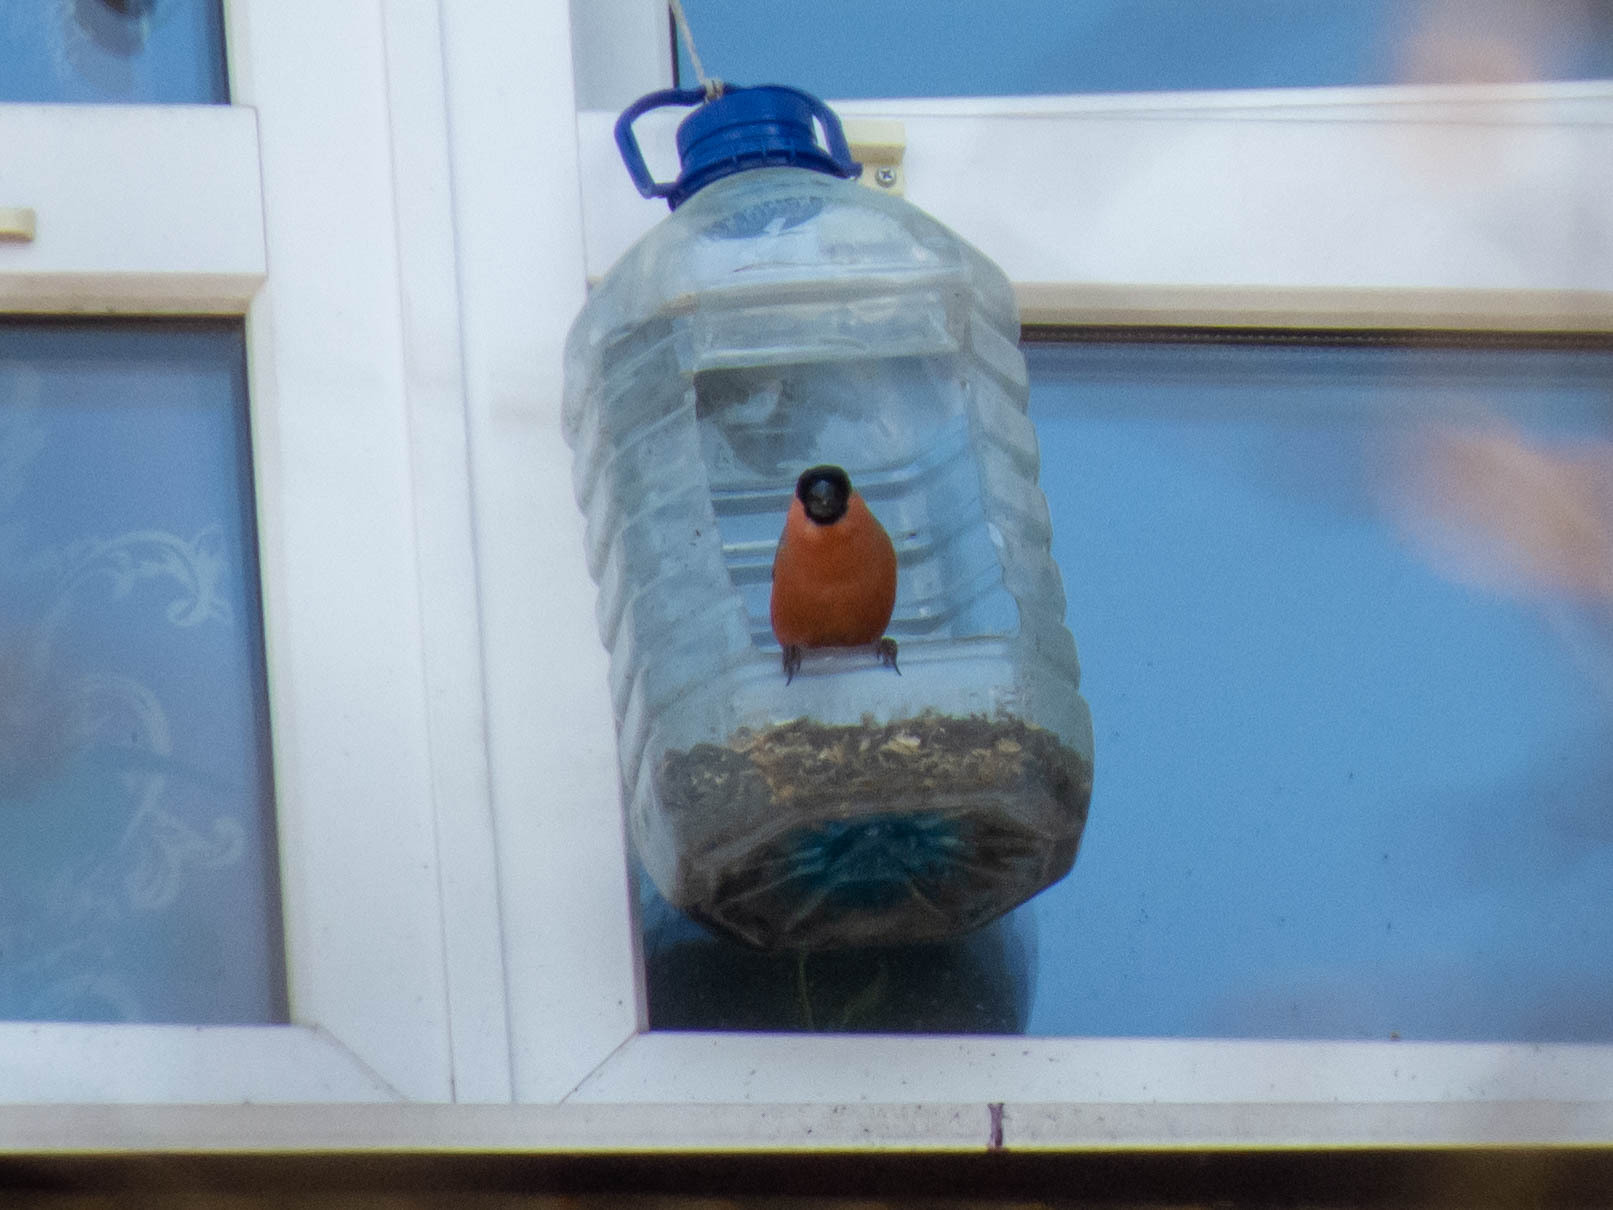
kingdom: Animalia
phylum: Chordata
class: Aves
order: Passeriformes
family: Fringillidae
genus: Pyrrhula
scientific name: Pyrrhula pyrrhula
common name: Eurasian bullfinch
